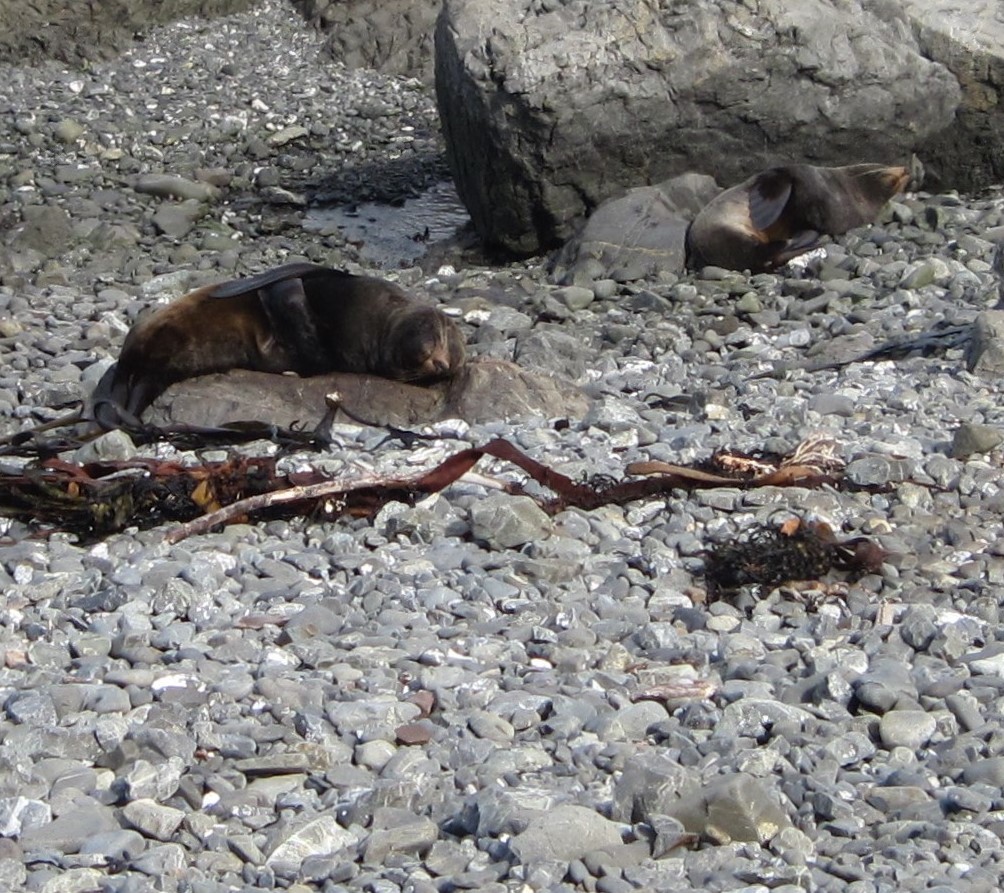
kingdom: Animalia
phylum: Chordata
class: Mammalia
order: Carnivora
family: Otariidae
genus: Arctocephalus
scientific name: Arctocephalus forsteri
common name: New zealand fur seal
